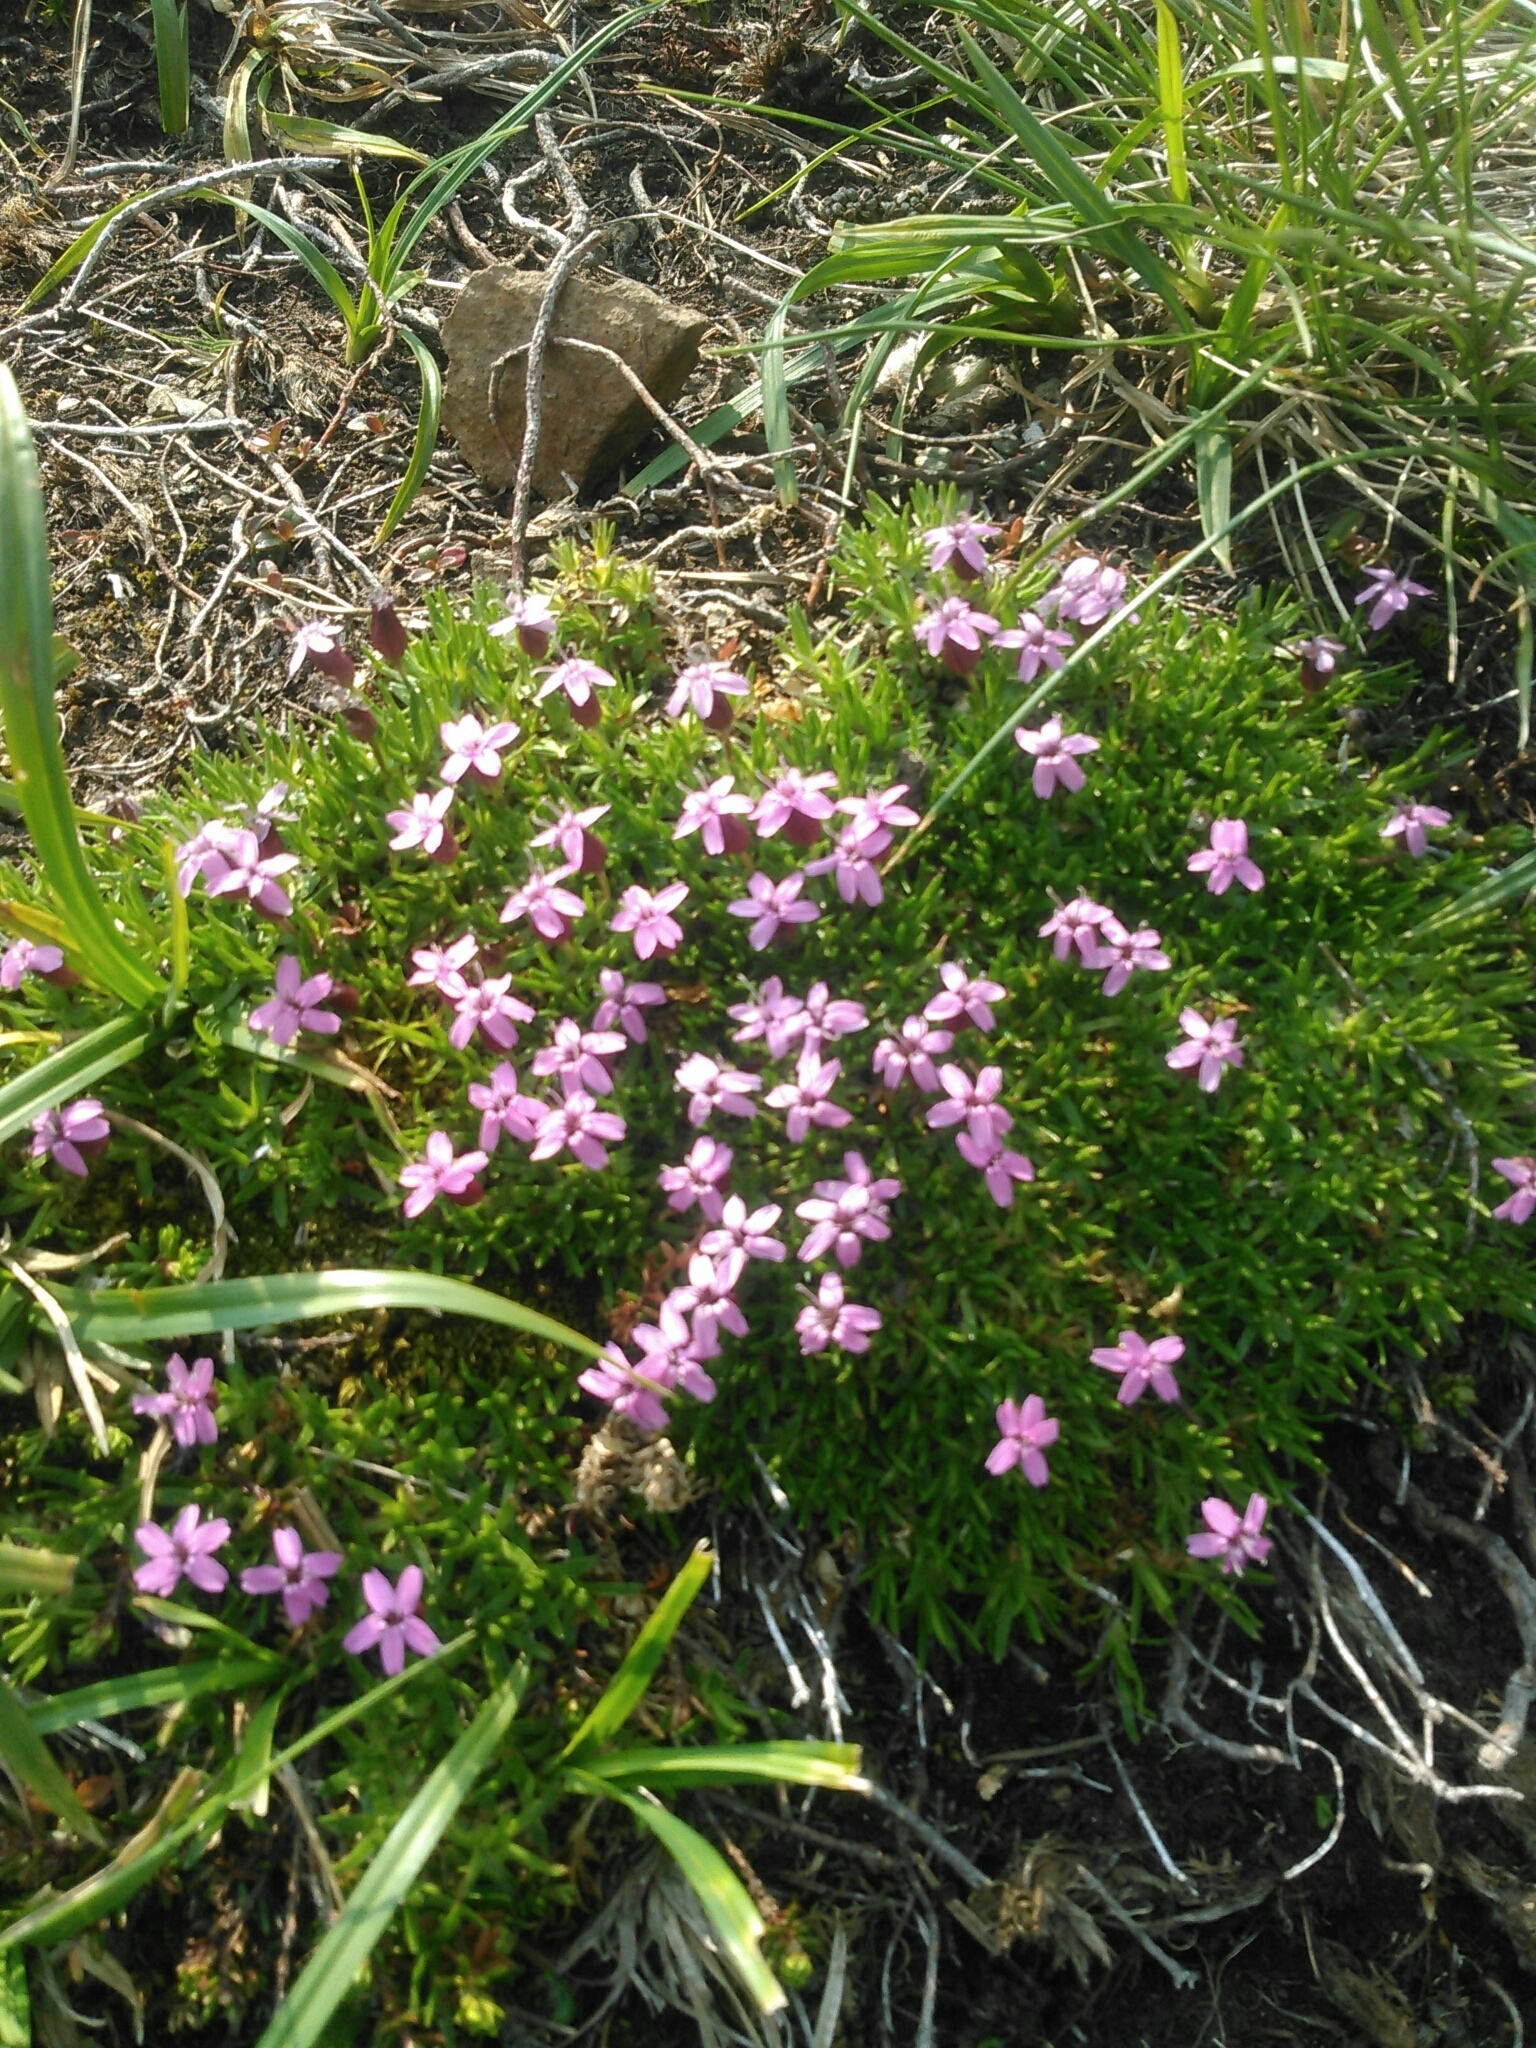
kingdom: Plantae
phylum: Tracheophyta
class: Magnoliopsida
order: Caryophyllales
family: Caryophyllaceae
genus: Silene
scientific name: Silene acaulis
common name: Moss campion
